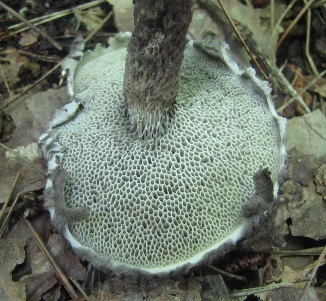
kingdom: Fungi
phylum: Basidiomycota
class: Agaricomycetes
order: Boletales
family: Boletaceae
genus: Strobilomyces
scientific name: Strobilomyces confusus
